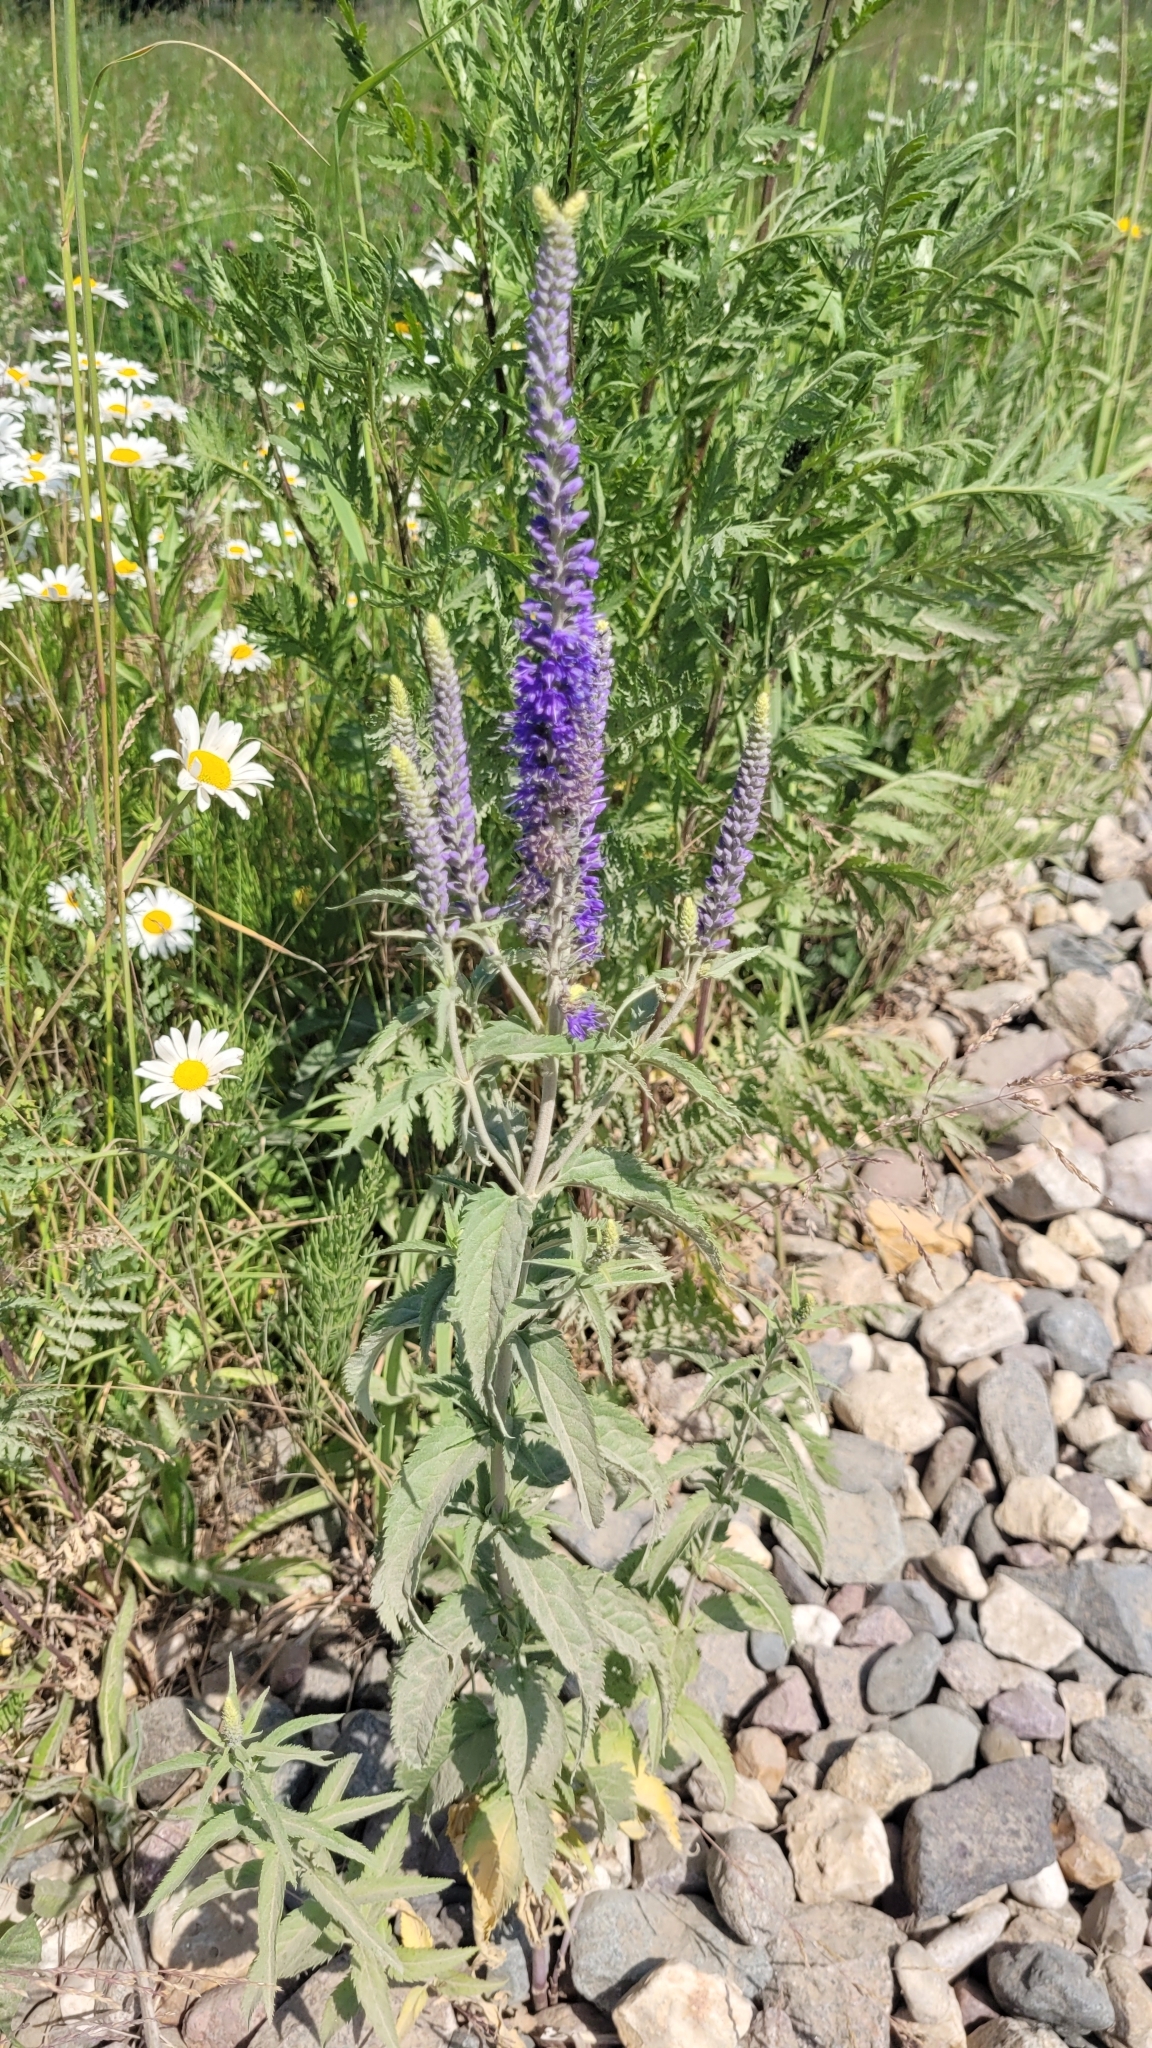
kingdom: Plantae
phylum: Tracheophyta
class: Magnoliopsida
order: Lamiales
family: Plantaginaceae
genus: Veronica
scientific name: Veronica longifolia
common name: Garden speedwell
